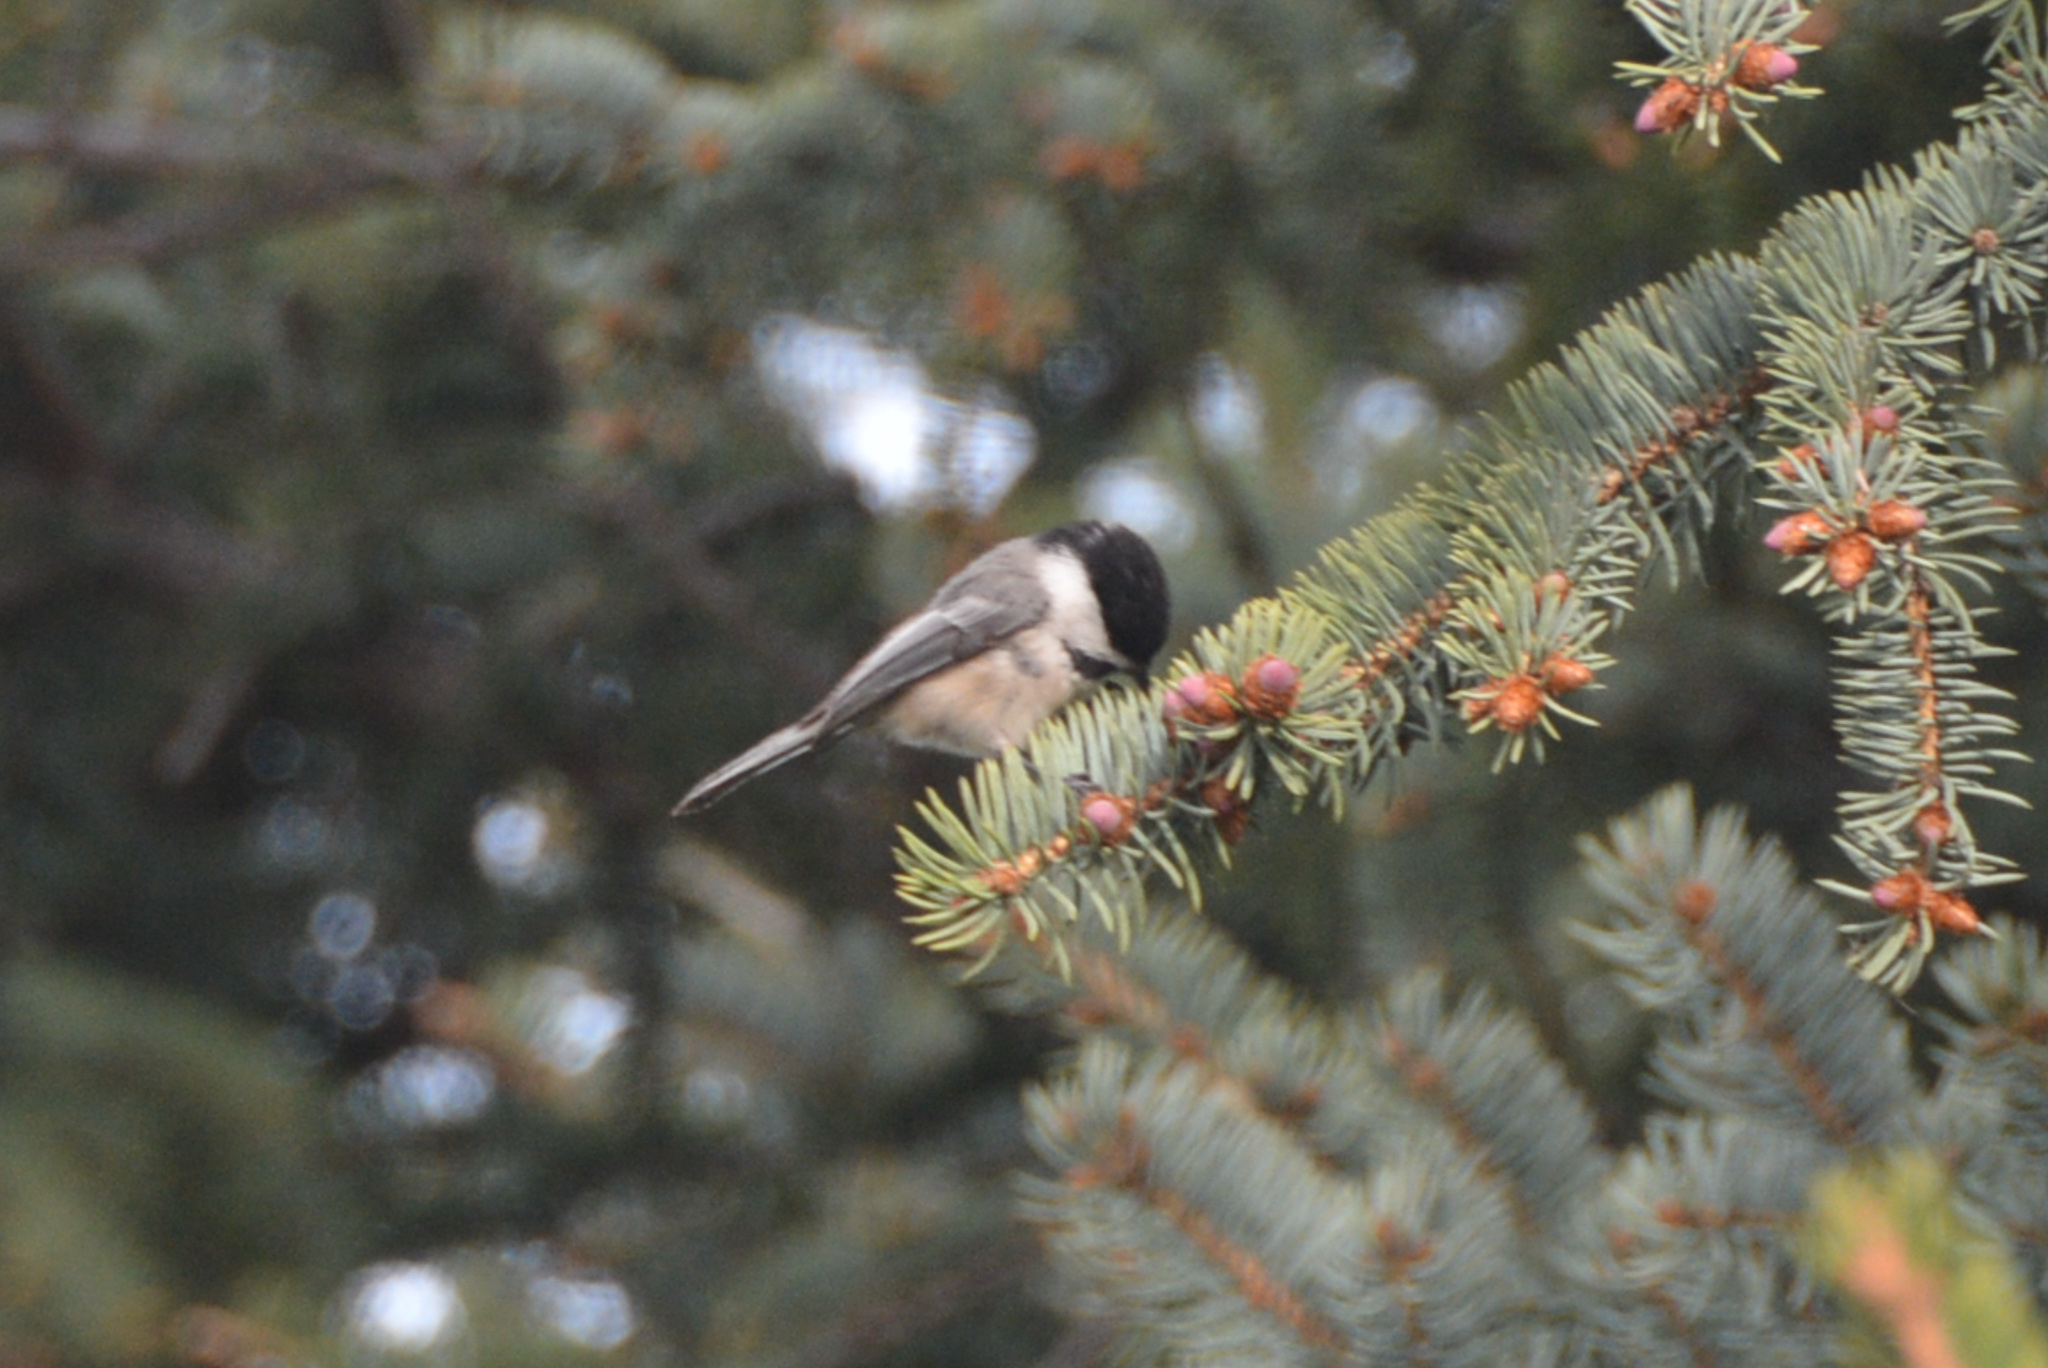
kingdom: Animalia
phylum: Chordata
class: Aves
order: Passeriformes
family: Paridae
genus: Poecile
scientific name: Poecile atricapillus
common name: Black-capped chickadee
